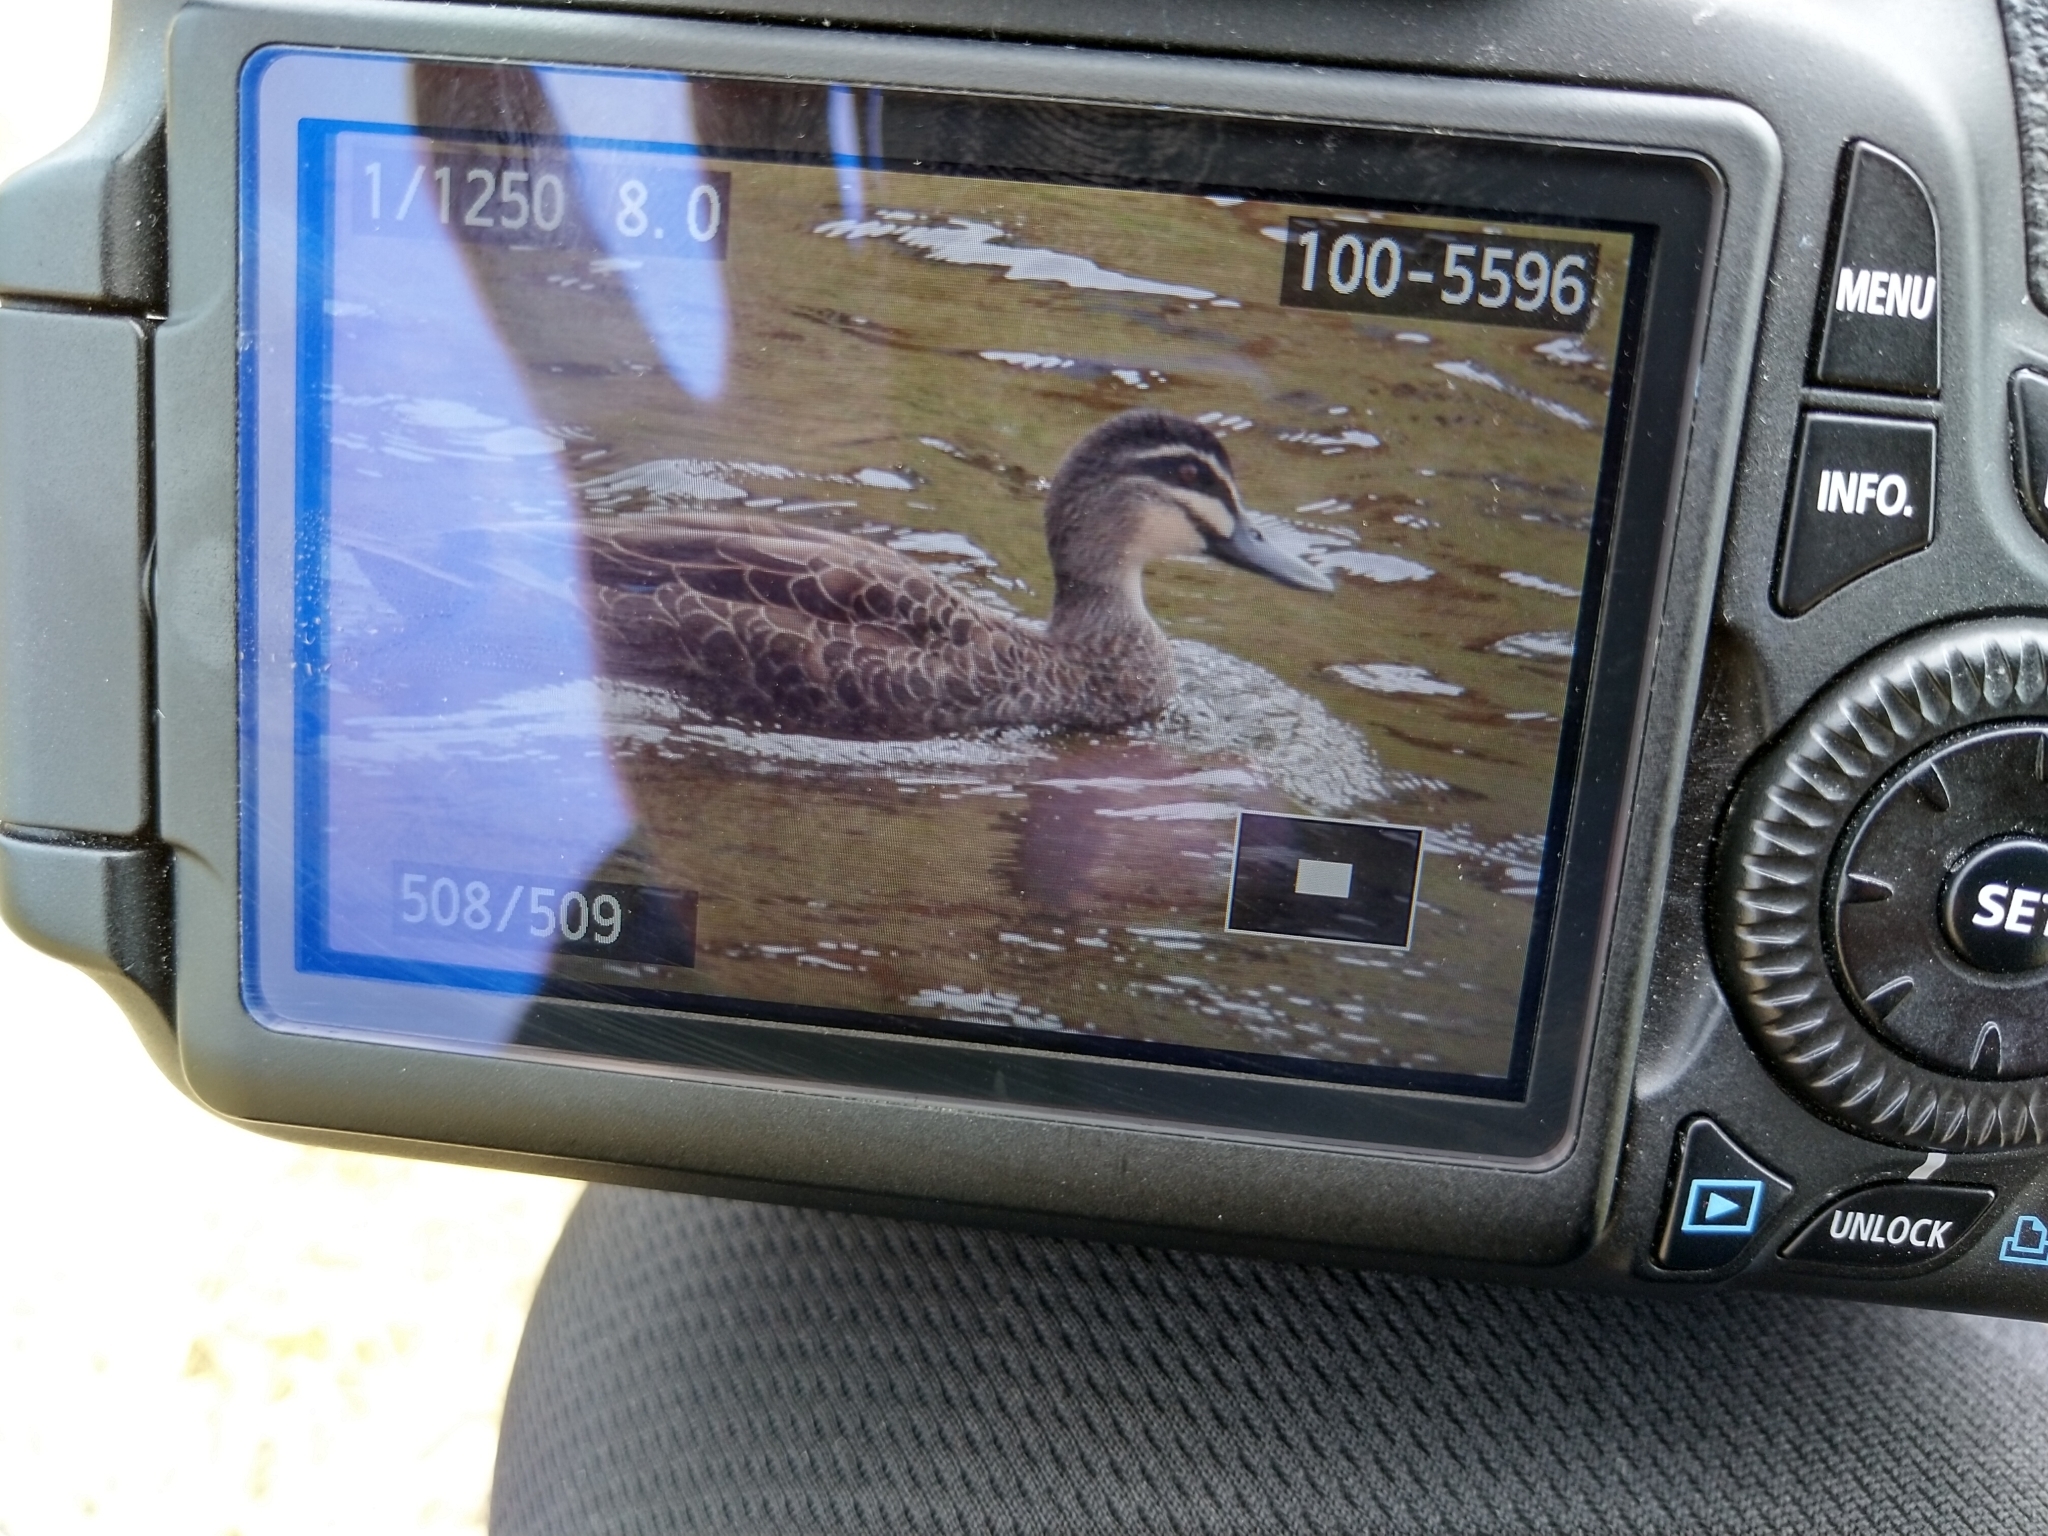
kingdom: Animalia
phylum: Chordata
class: Aves
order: Anseriformes
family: Anatidae
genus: Anas
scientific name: Anas superciliosa
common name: Pacific black duck
